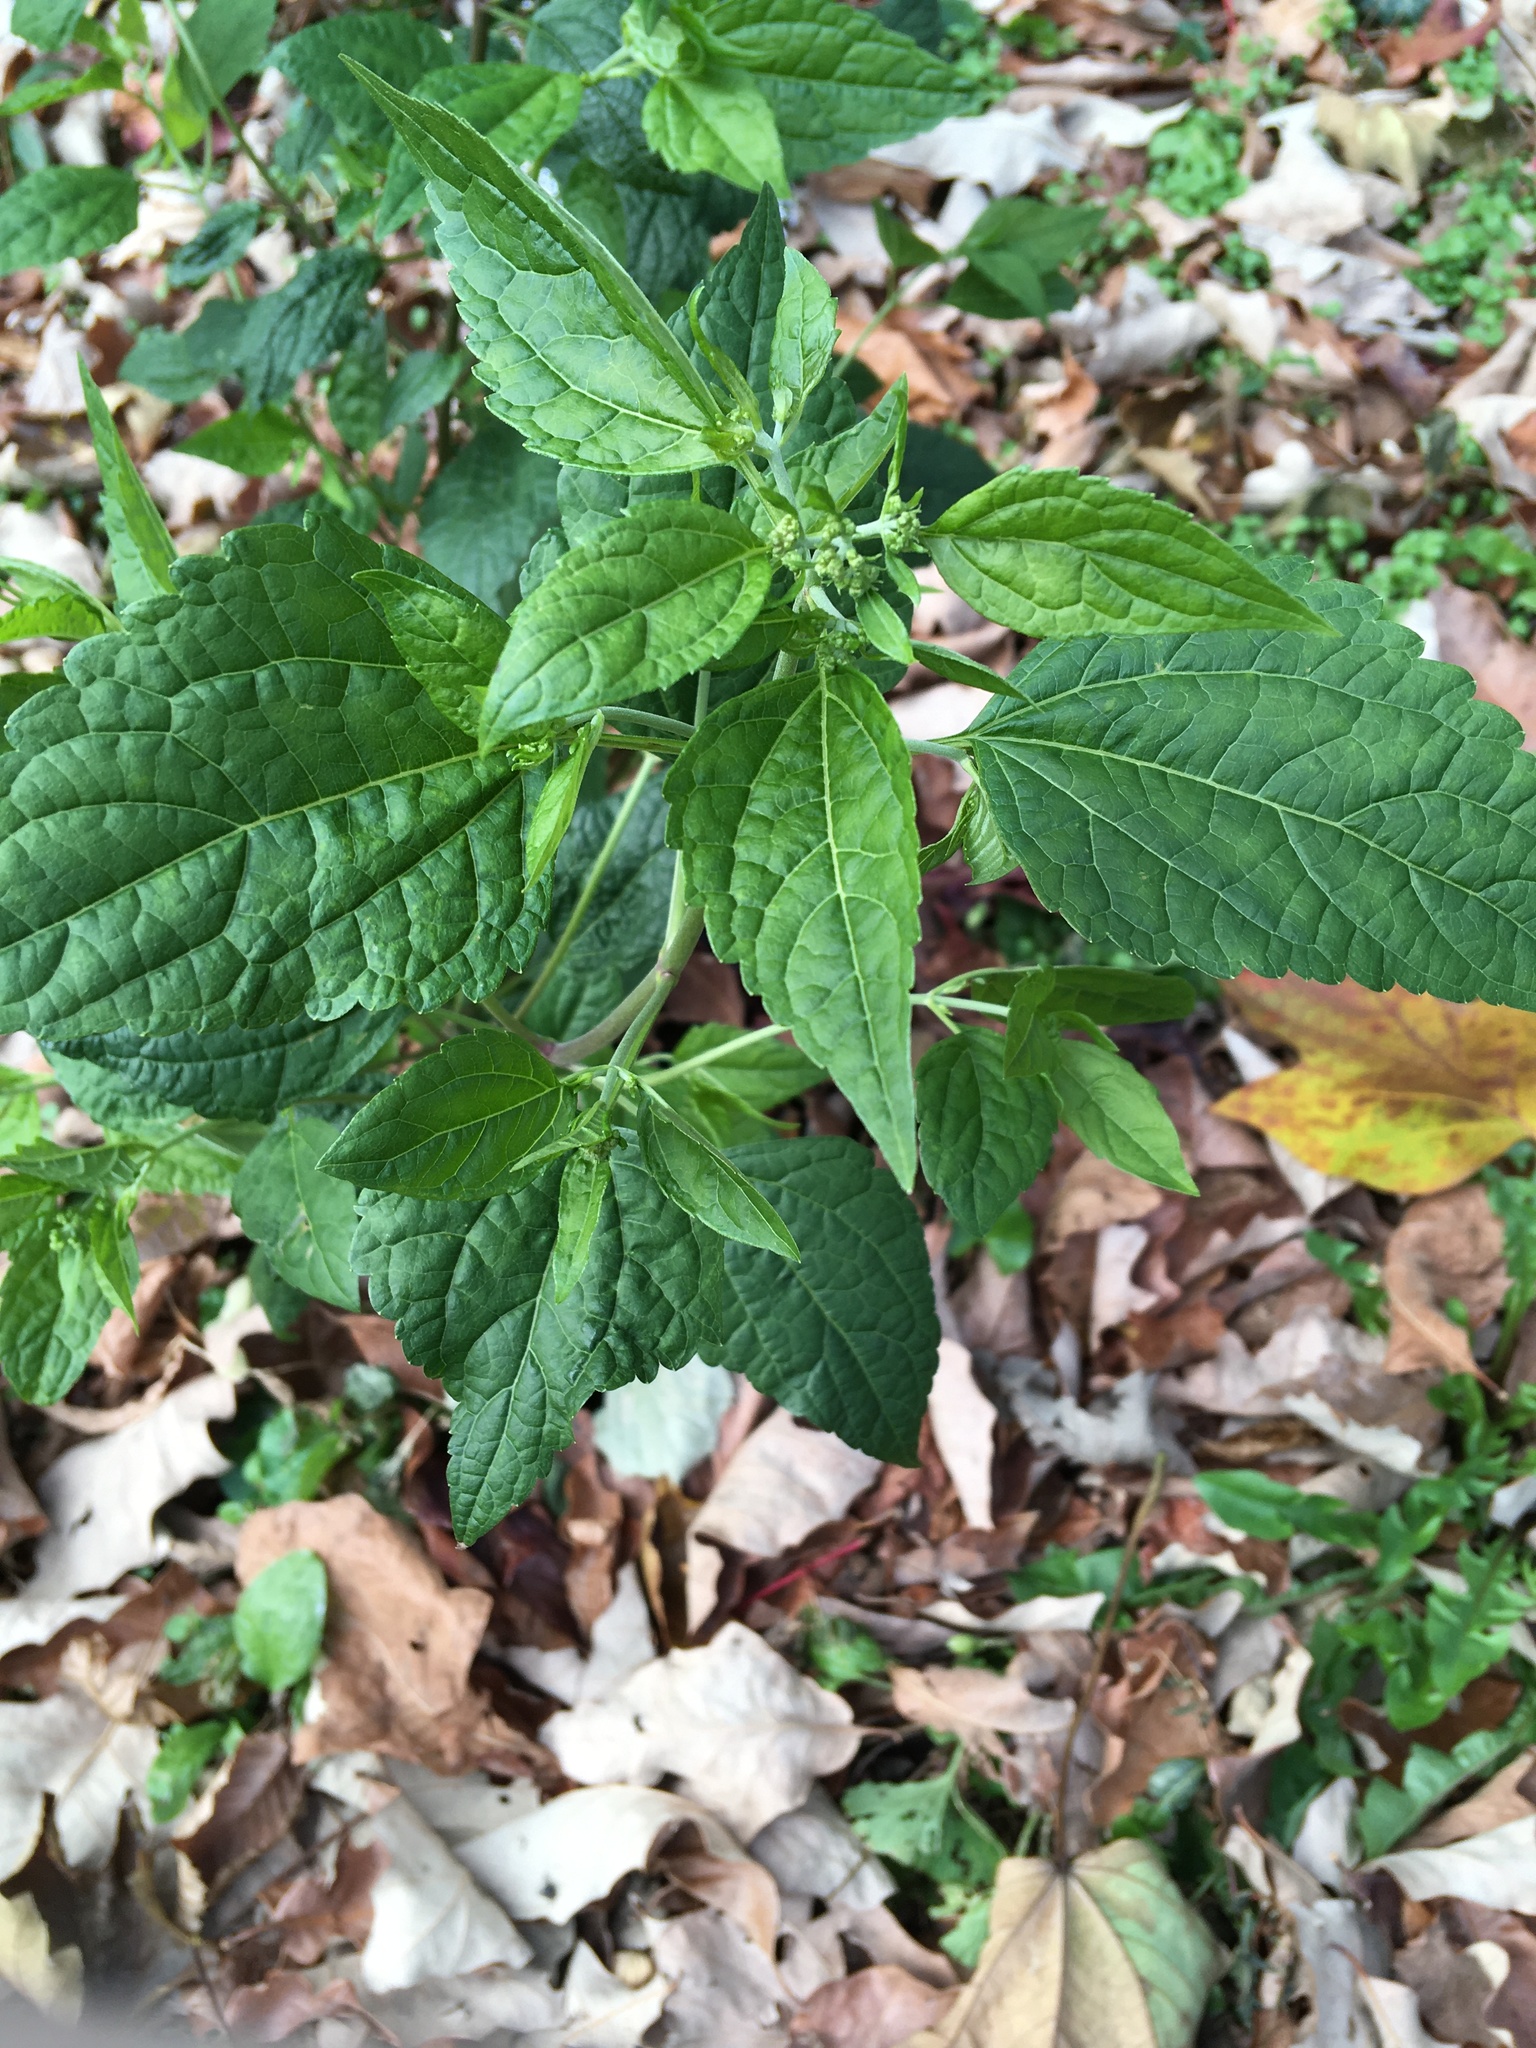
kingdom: Plantae
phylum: Tracheophyta
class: Magnoliopsida
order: Asterales
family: Asteraceae
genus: Ageratina
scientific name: Ageratina altissima
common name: White snakeroot
